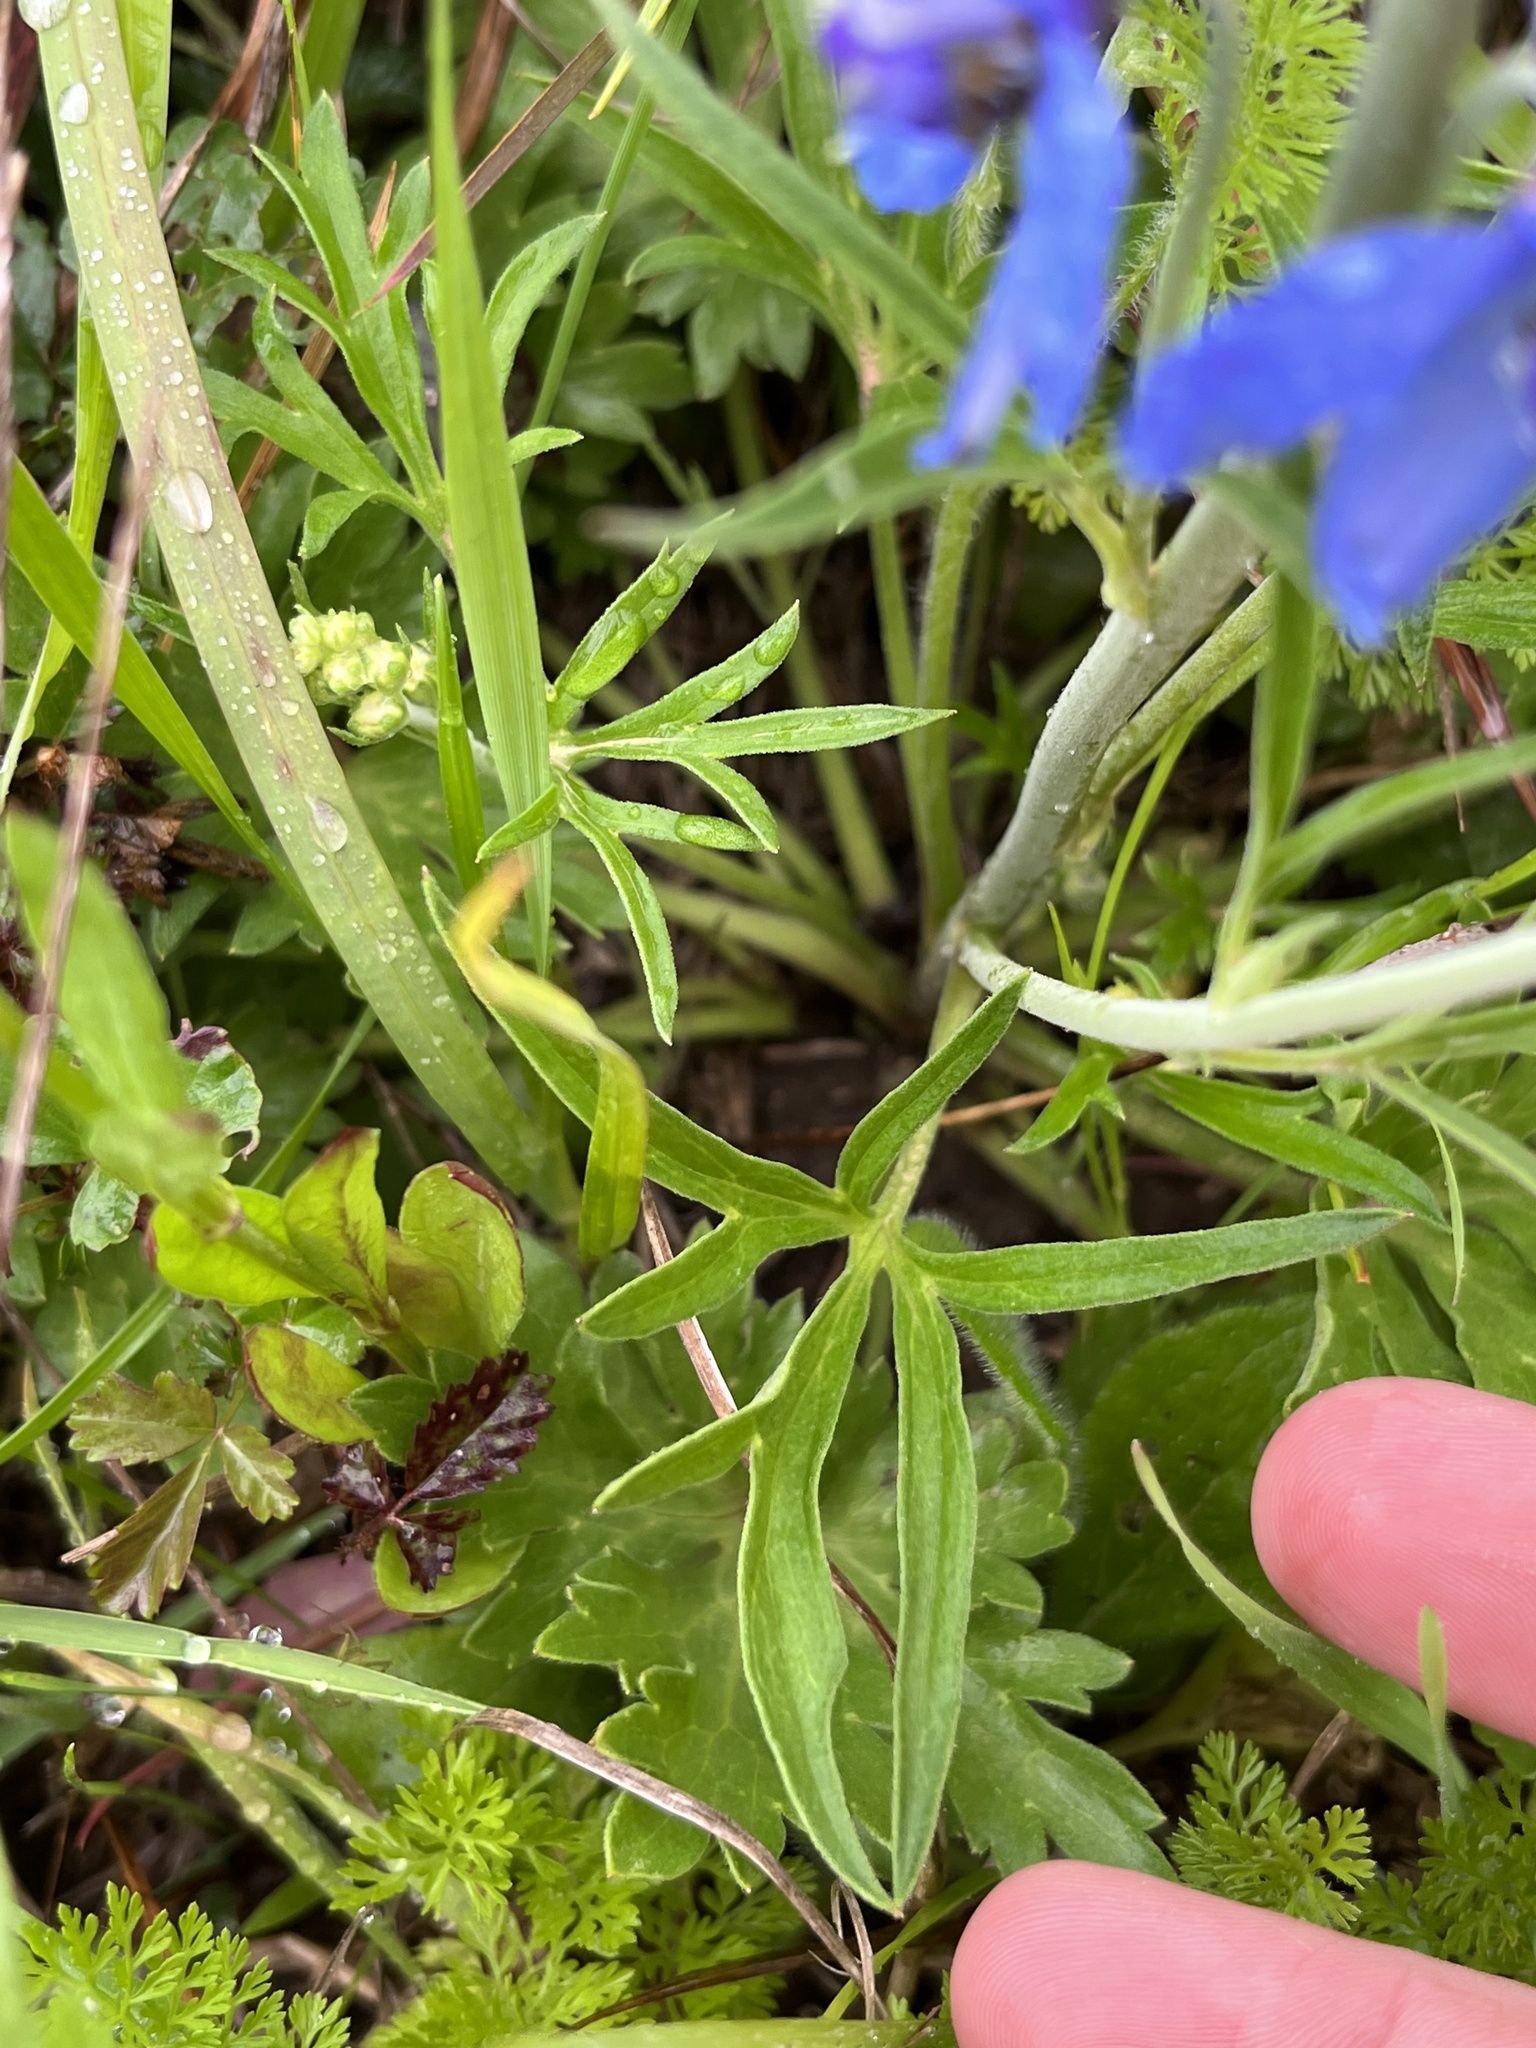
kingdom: Plantae
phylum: Tracheophyta
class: Magnoliopsida
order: Ranunculales
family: Ranunculaceae
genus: Delphinium
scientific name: Delphinium carolinianum
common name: Carolina larkspur
